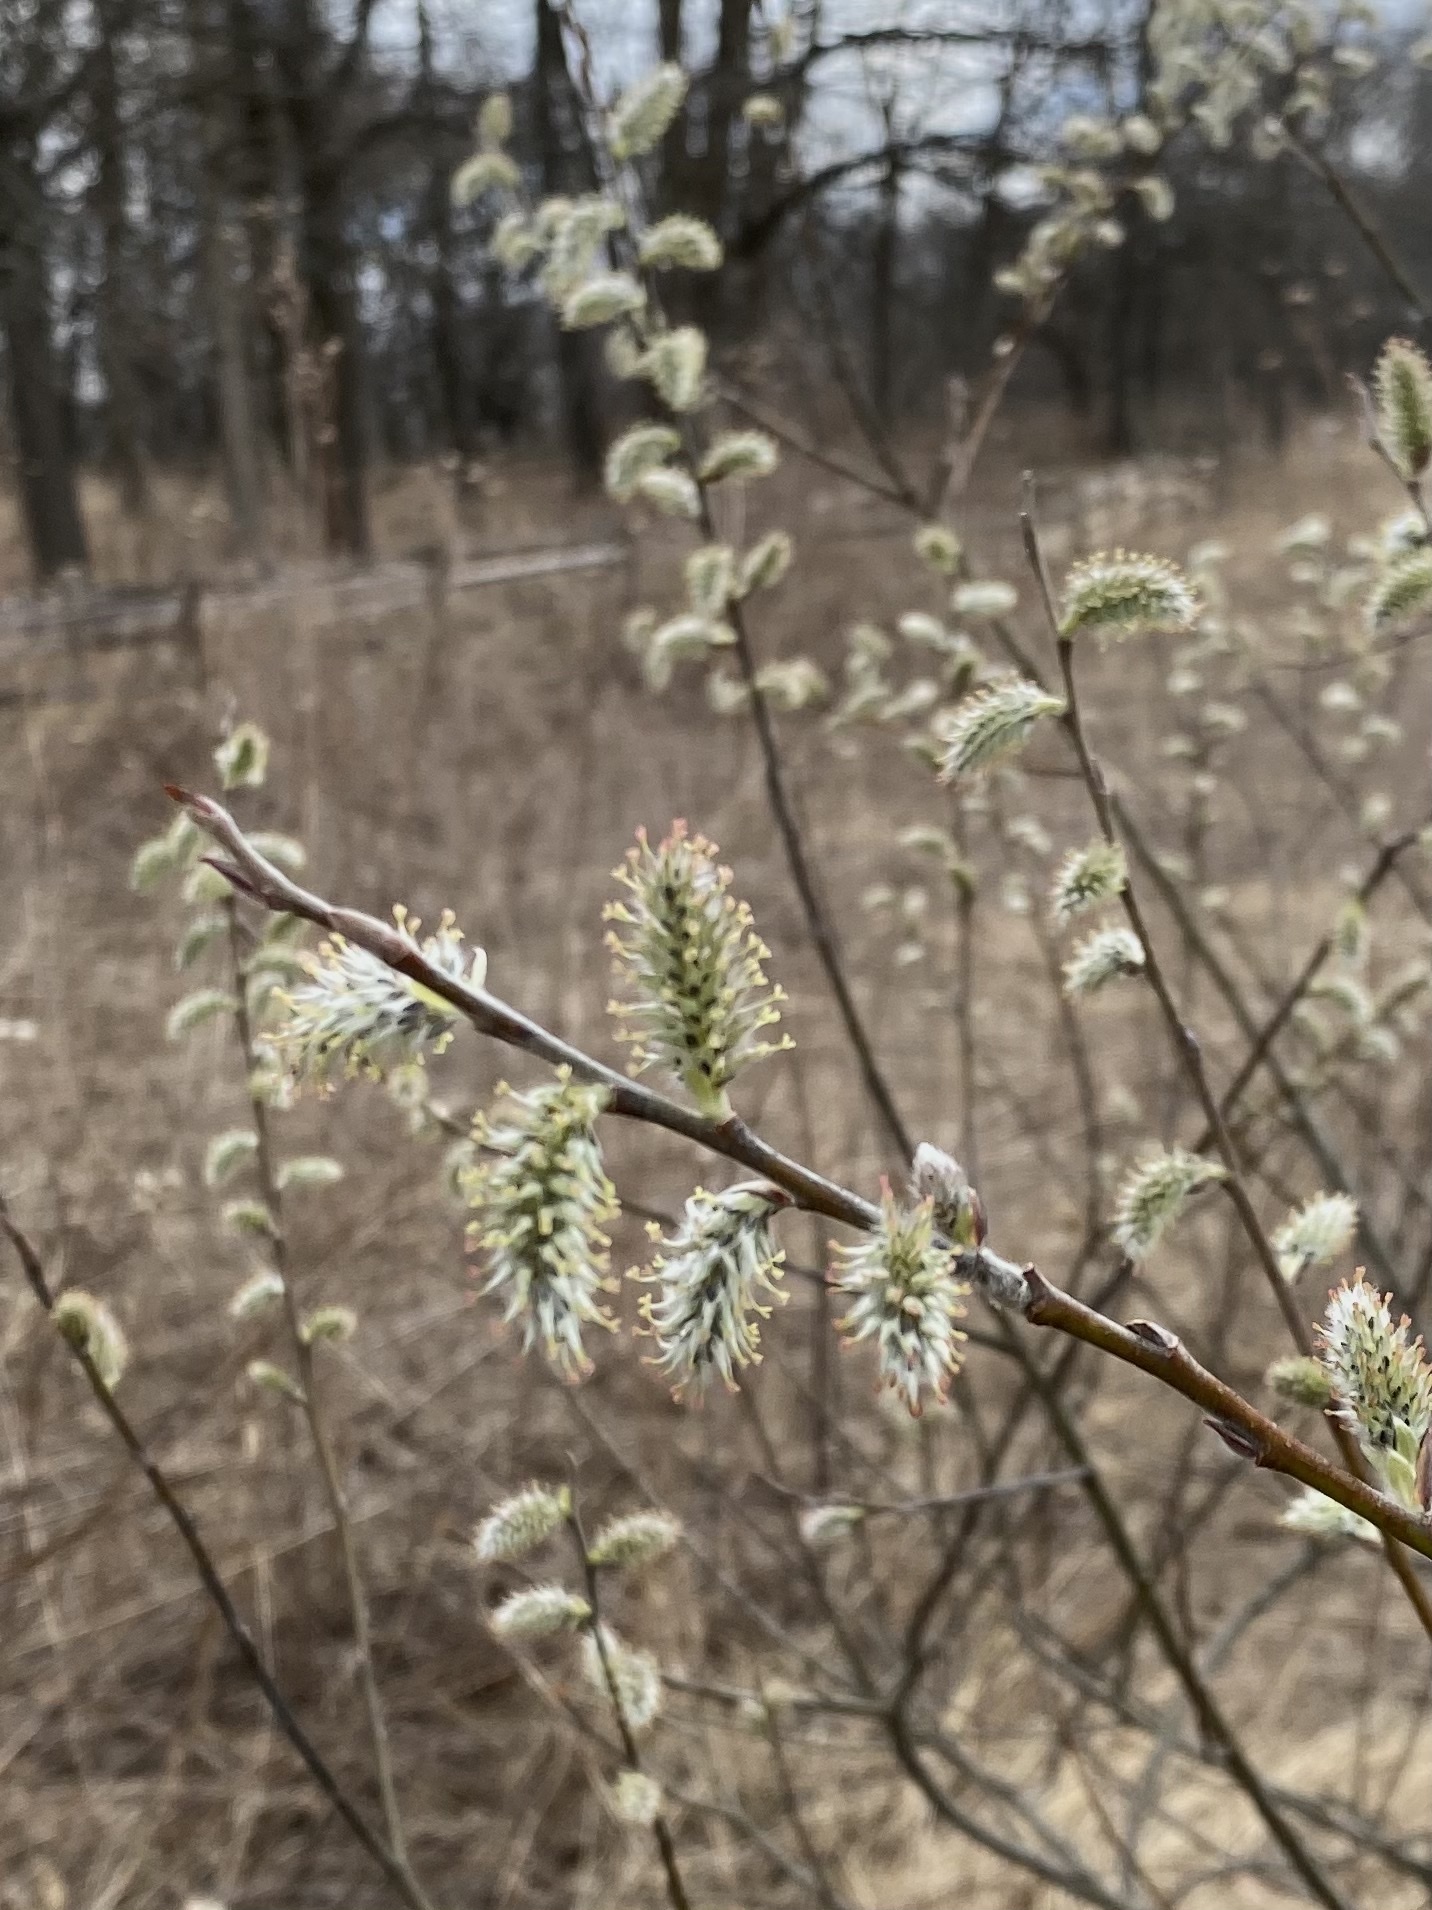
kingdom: Plantae
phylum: Tracheophyta
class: Magnoliopsida
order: Malpighiales
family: Salicaceae
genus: Salix
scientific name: Salix discolor
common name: Glaucous willow
